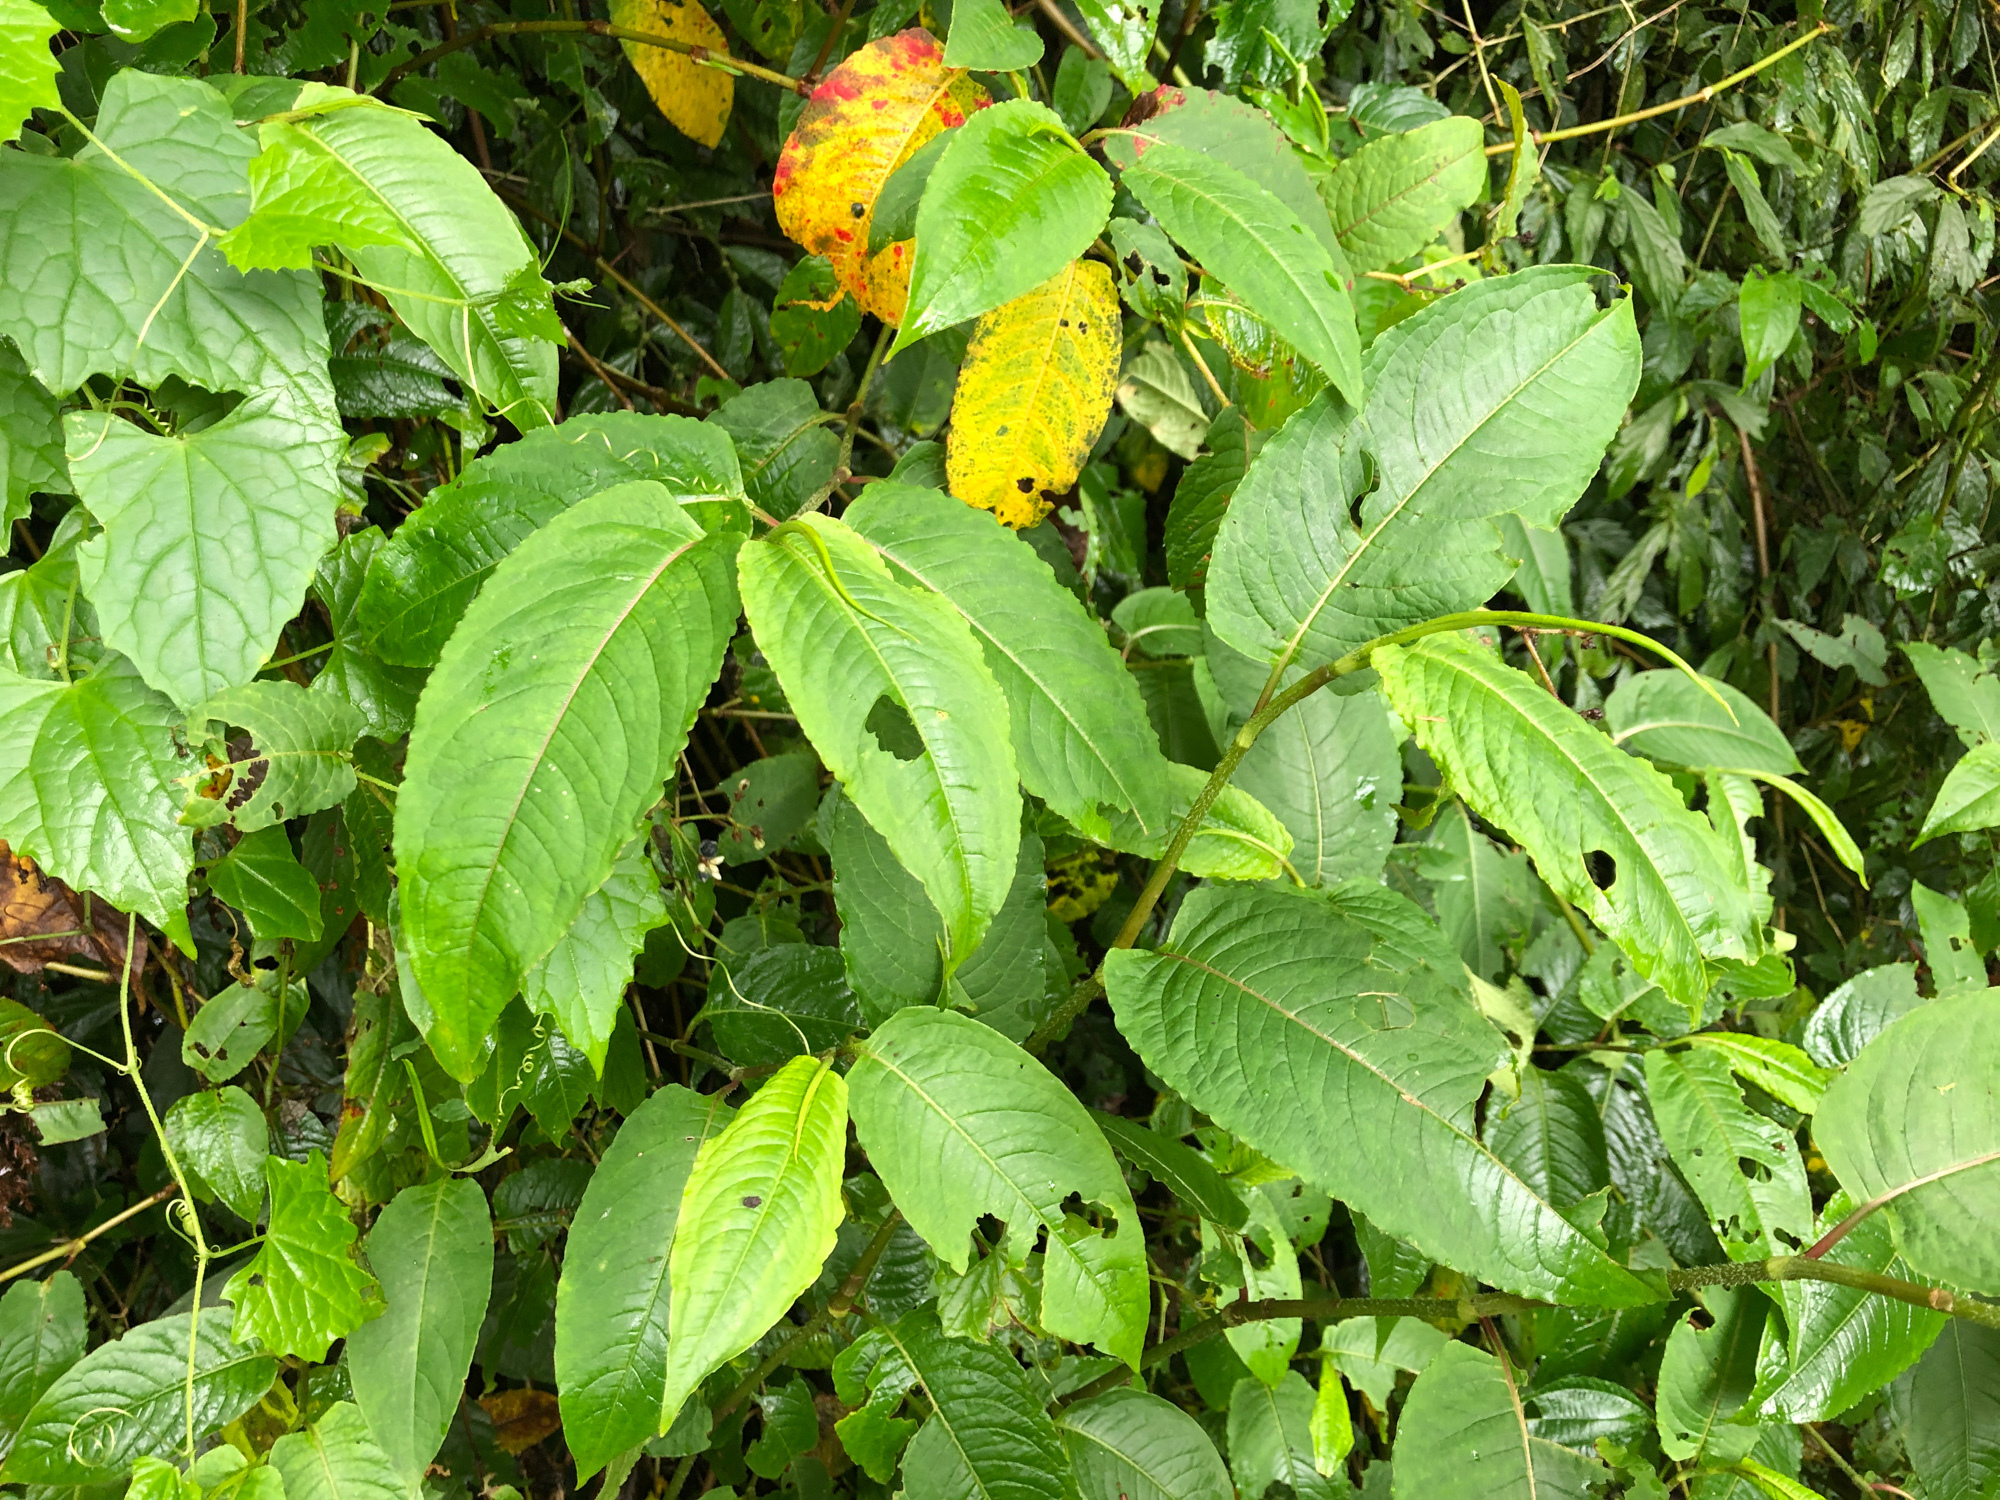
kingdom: Plantae
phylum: Tracheophyta
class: Magnoliopsida
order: Caryophyllales
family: Polygonaceae
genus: Persicaria
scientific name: Persicaria chinensis
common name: Chinese knotweed
